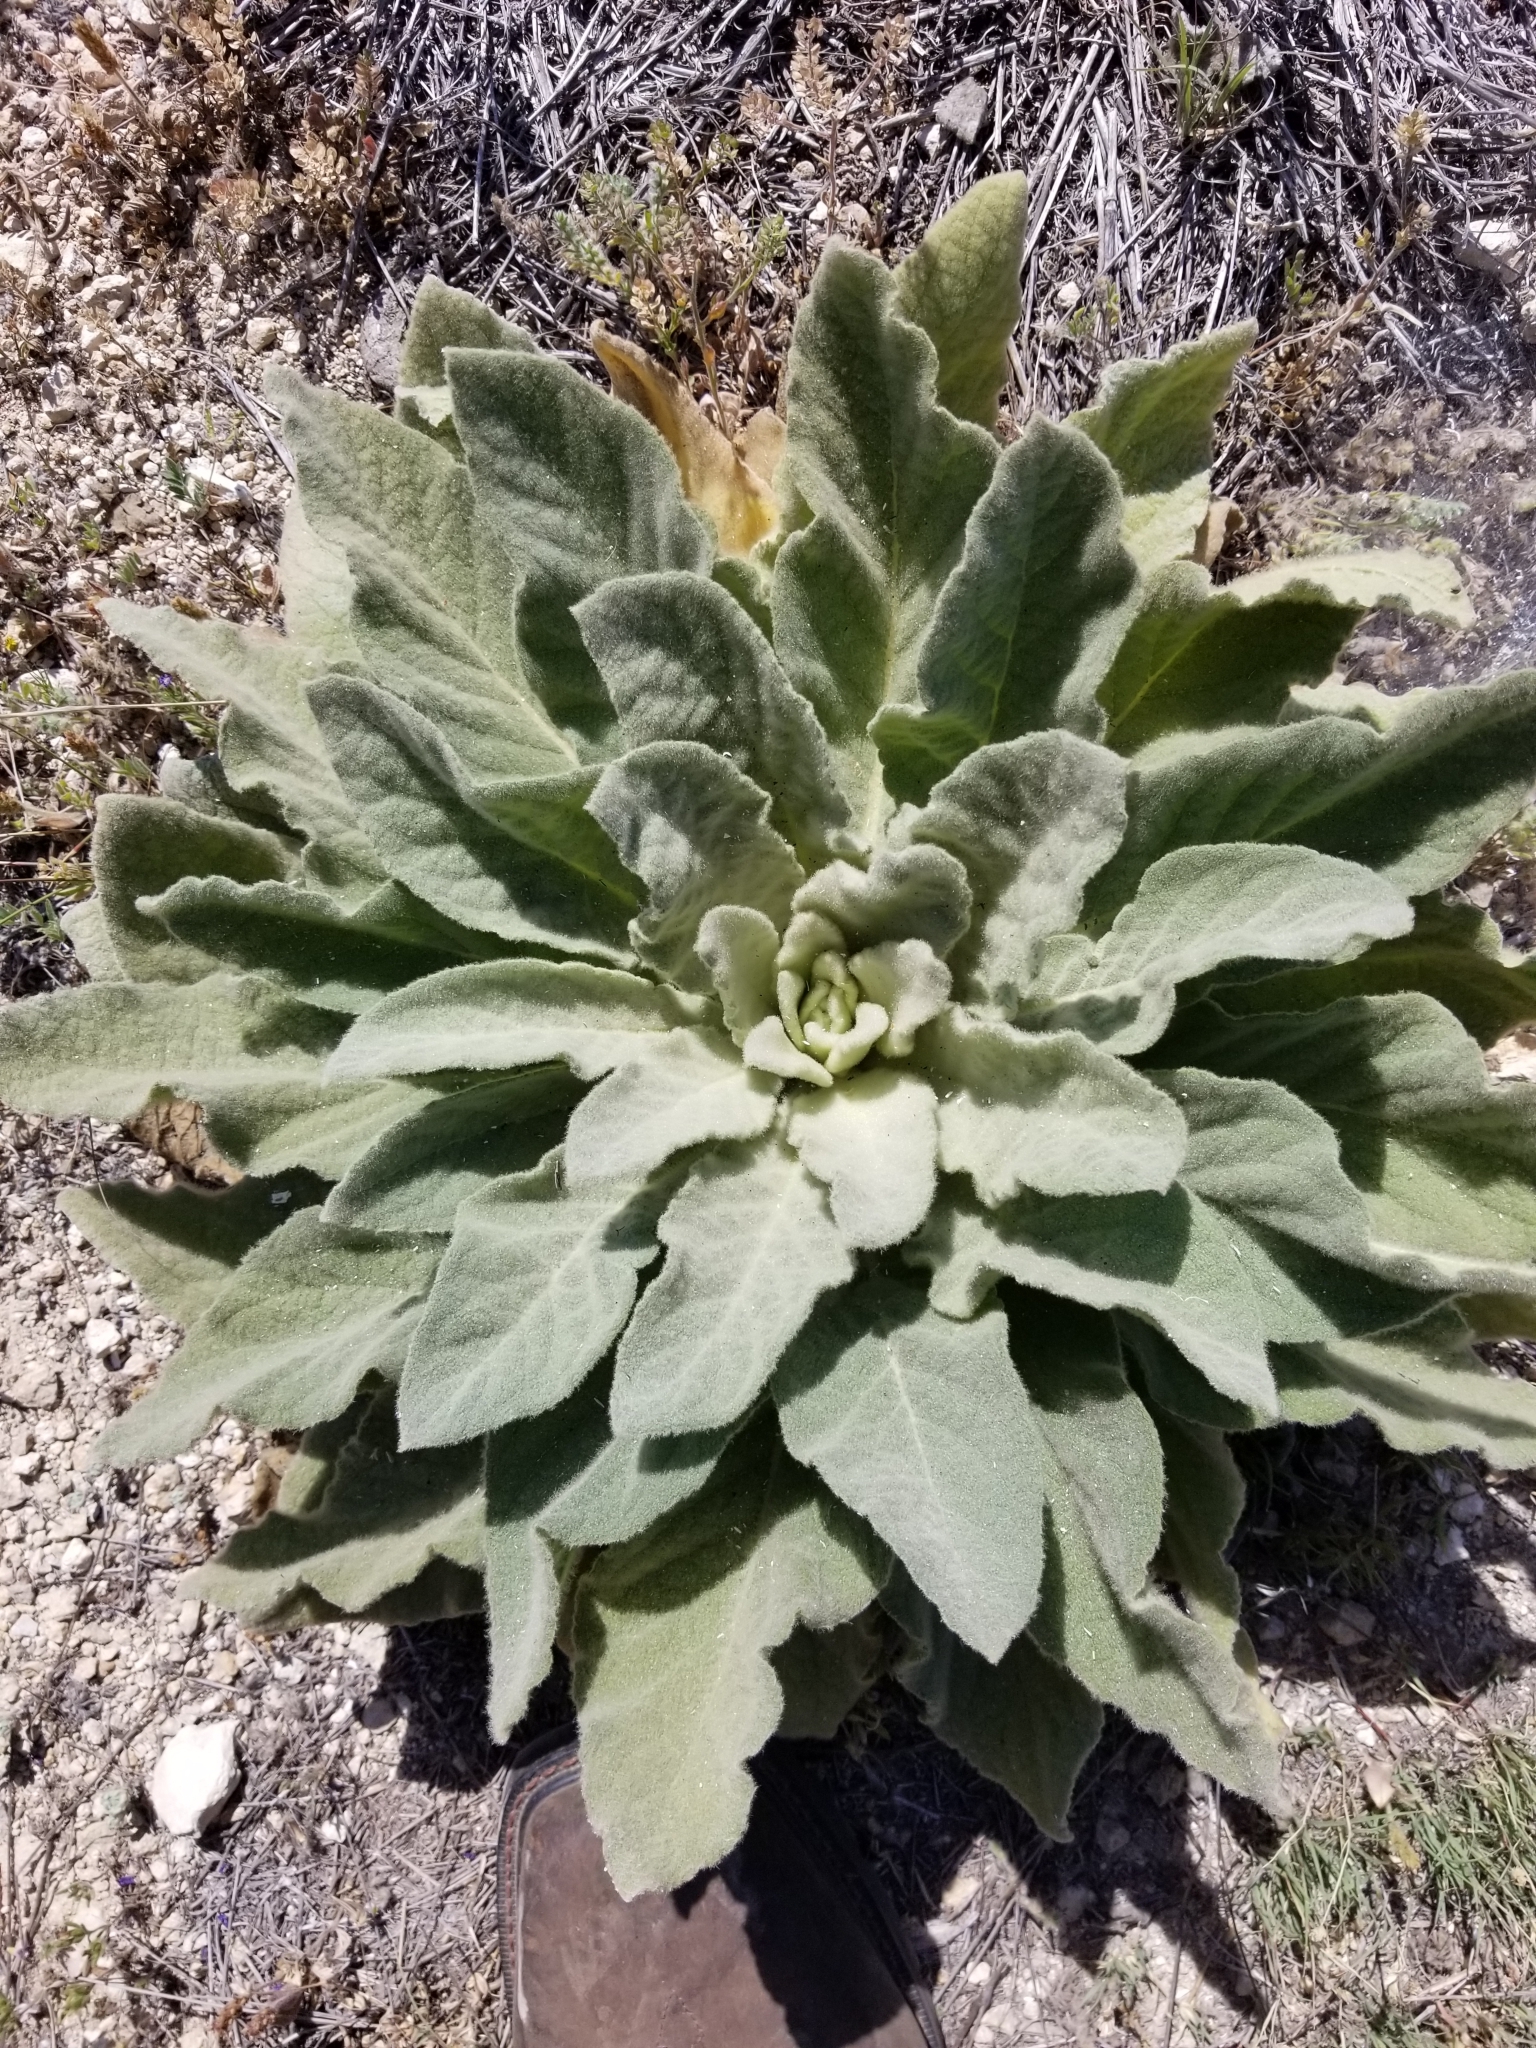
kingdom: Plantae
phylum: Tracheophyta
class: Magnoliopsida
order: Lamiales
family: Scrophulariaceae
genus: Verbascum
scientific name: Verbascum thapsus
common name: Common mullein
